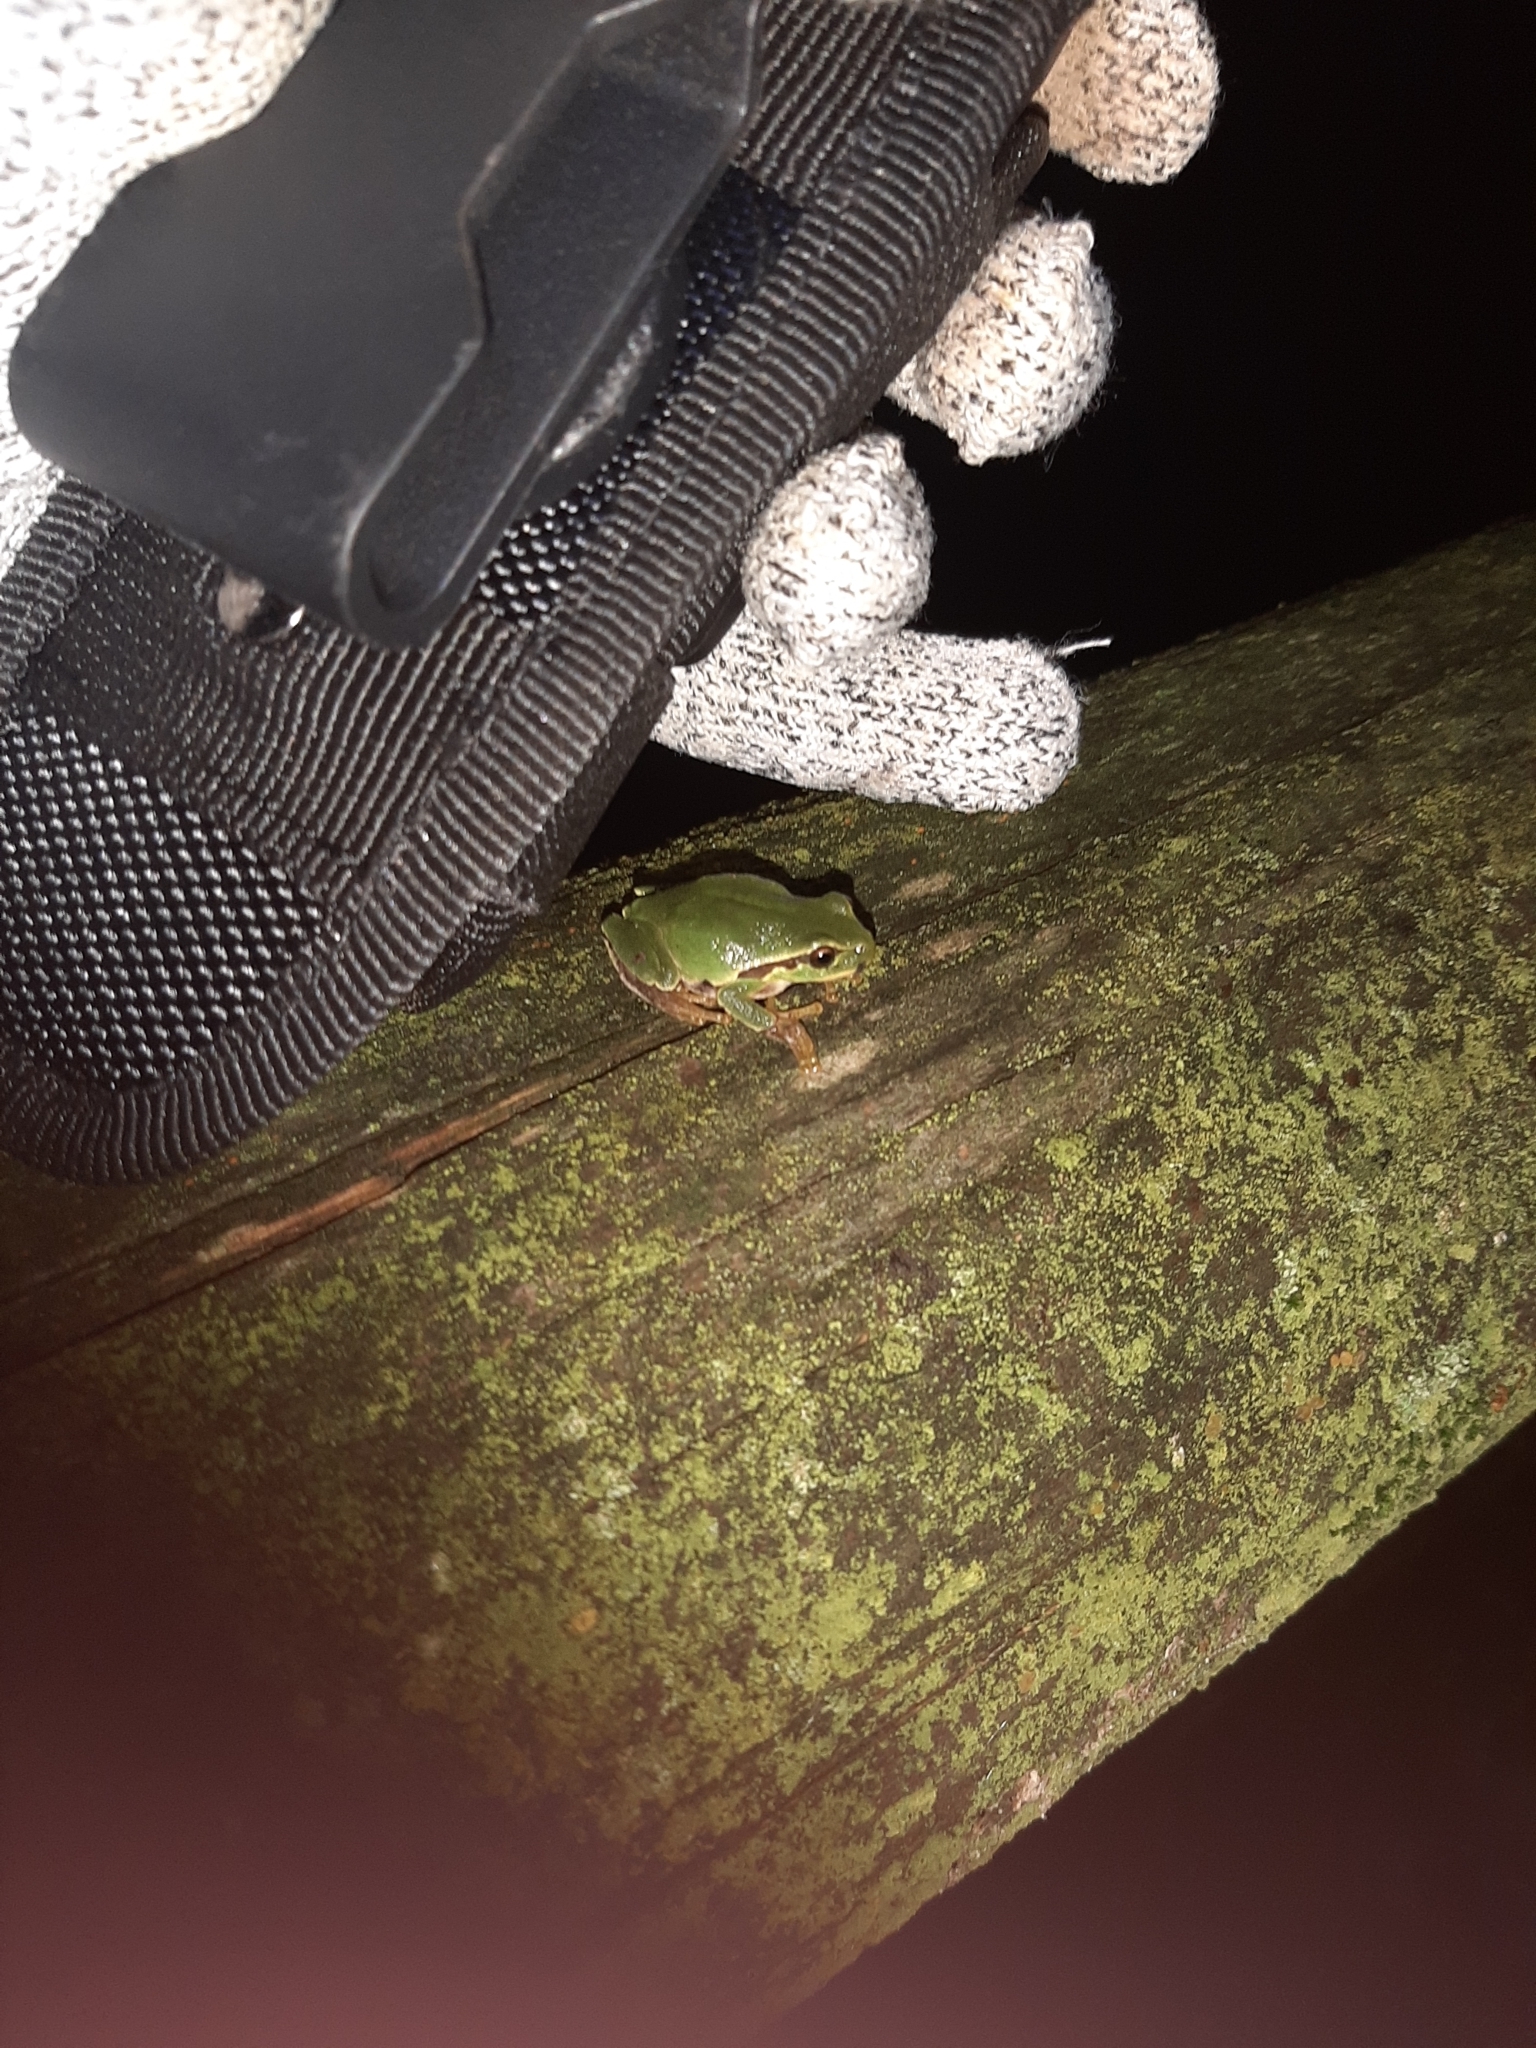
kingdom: Animalia
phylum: Chordata
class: Amphibia
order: Anura
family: Hylidae
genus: Hyla
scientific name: Hyla intermedia
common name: Italian tree frog
